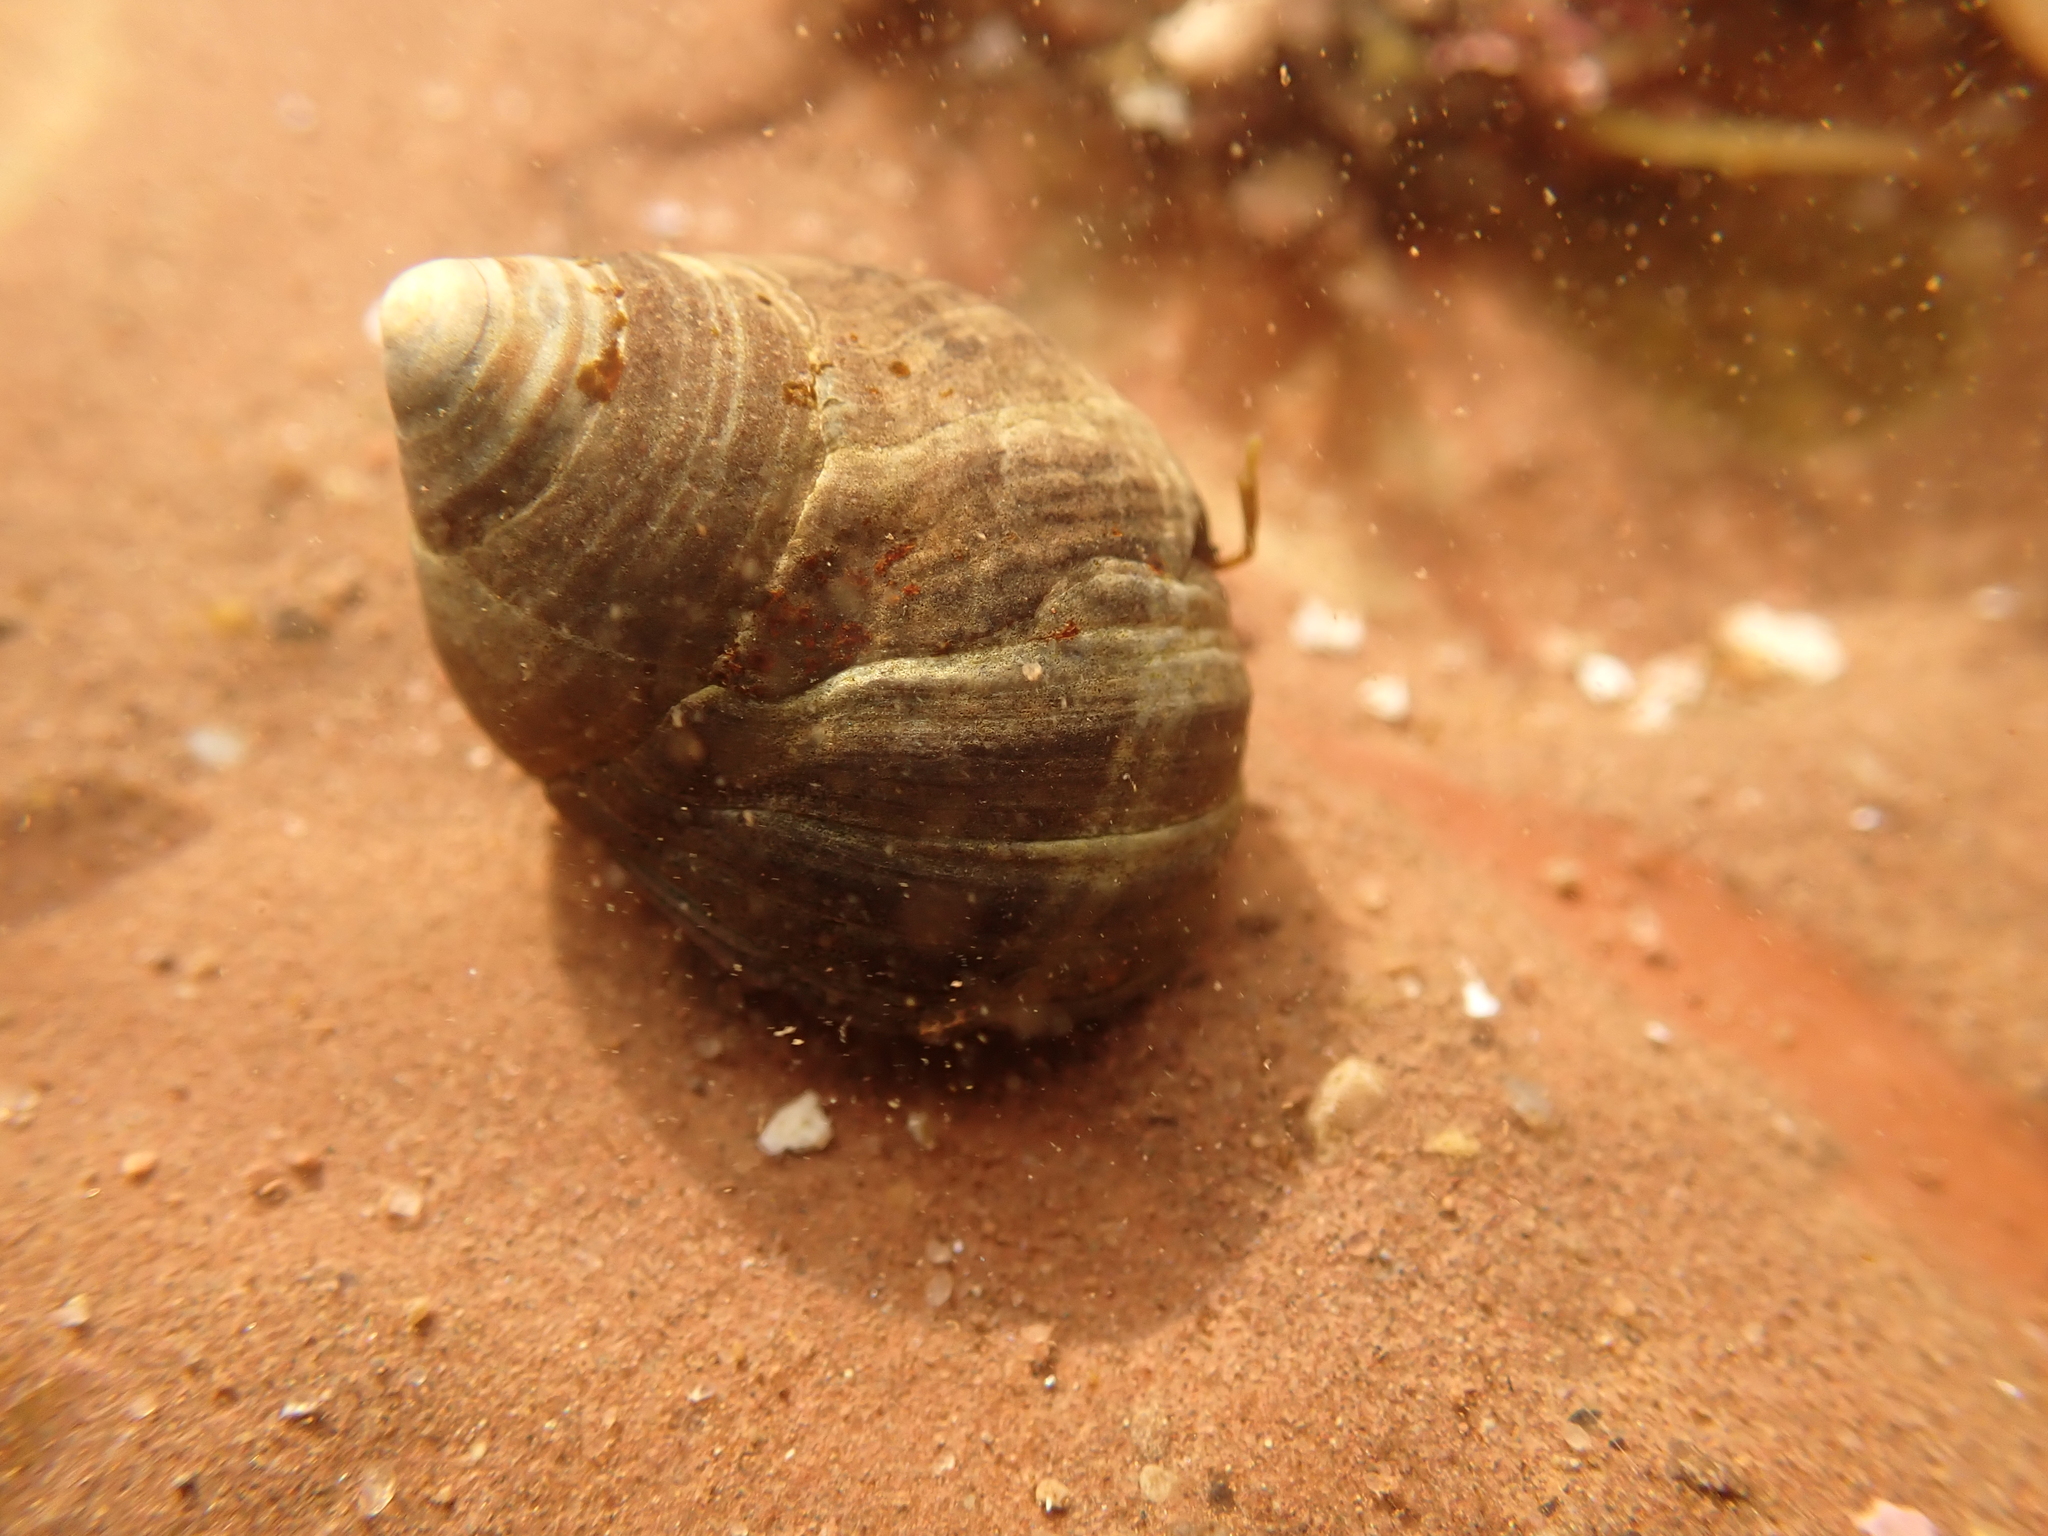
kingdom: Animalia
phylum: Mollusca
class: Gastropoda
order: Littorinimorpha
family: Littorinidae
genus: Littorina
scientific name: Littorina littorea
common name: Common periwinkle
